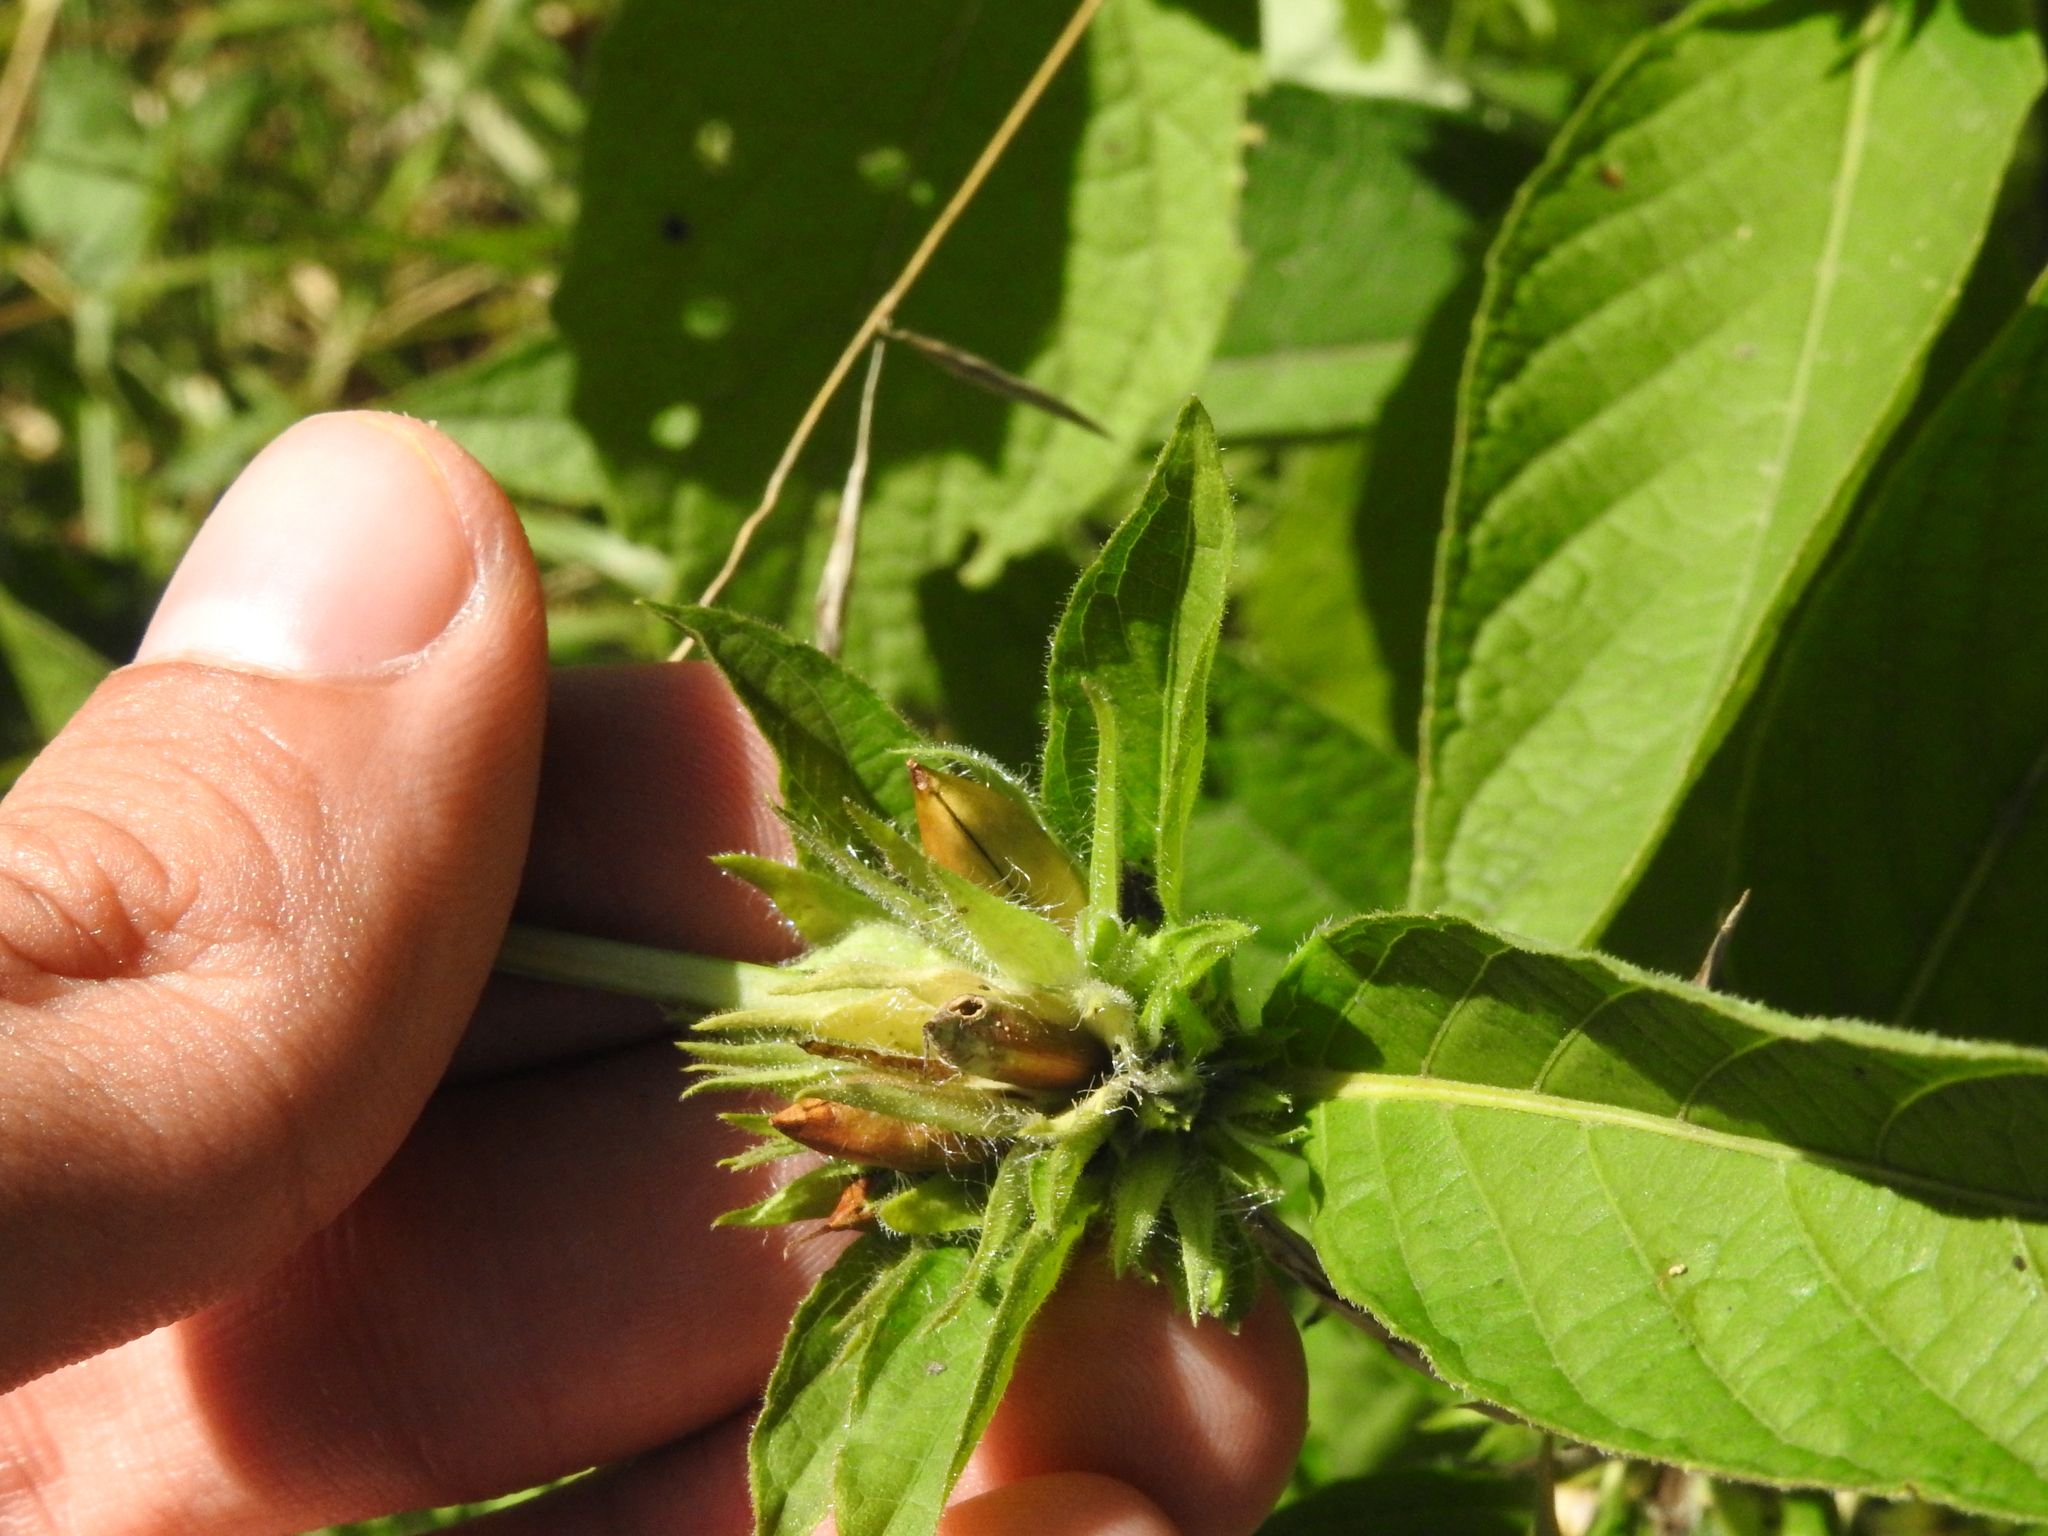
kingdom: Plantae
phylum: Tracheophyta
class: Magnoliopsida
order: Lamiales
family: Acanthaceae
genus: Ruellia
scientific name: Ruellia strepens
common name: Limestone wild petunia
